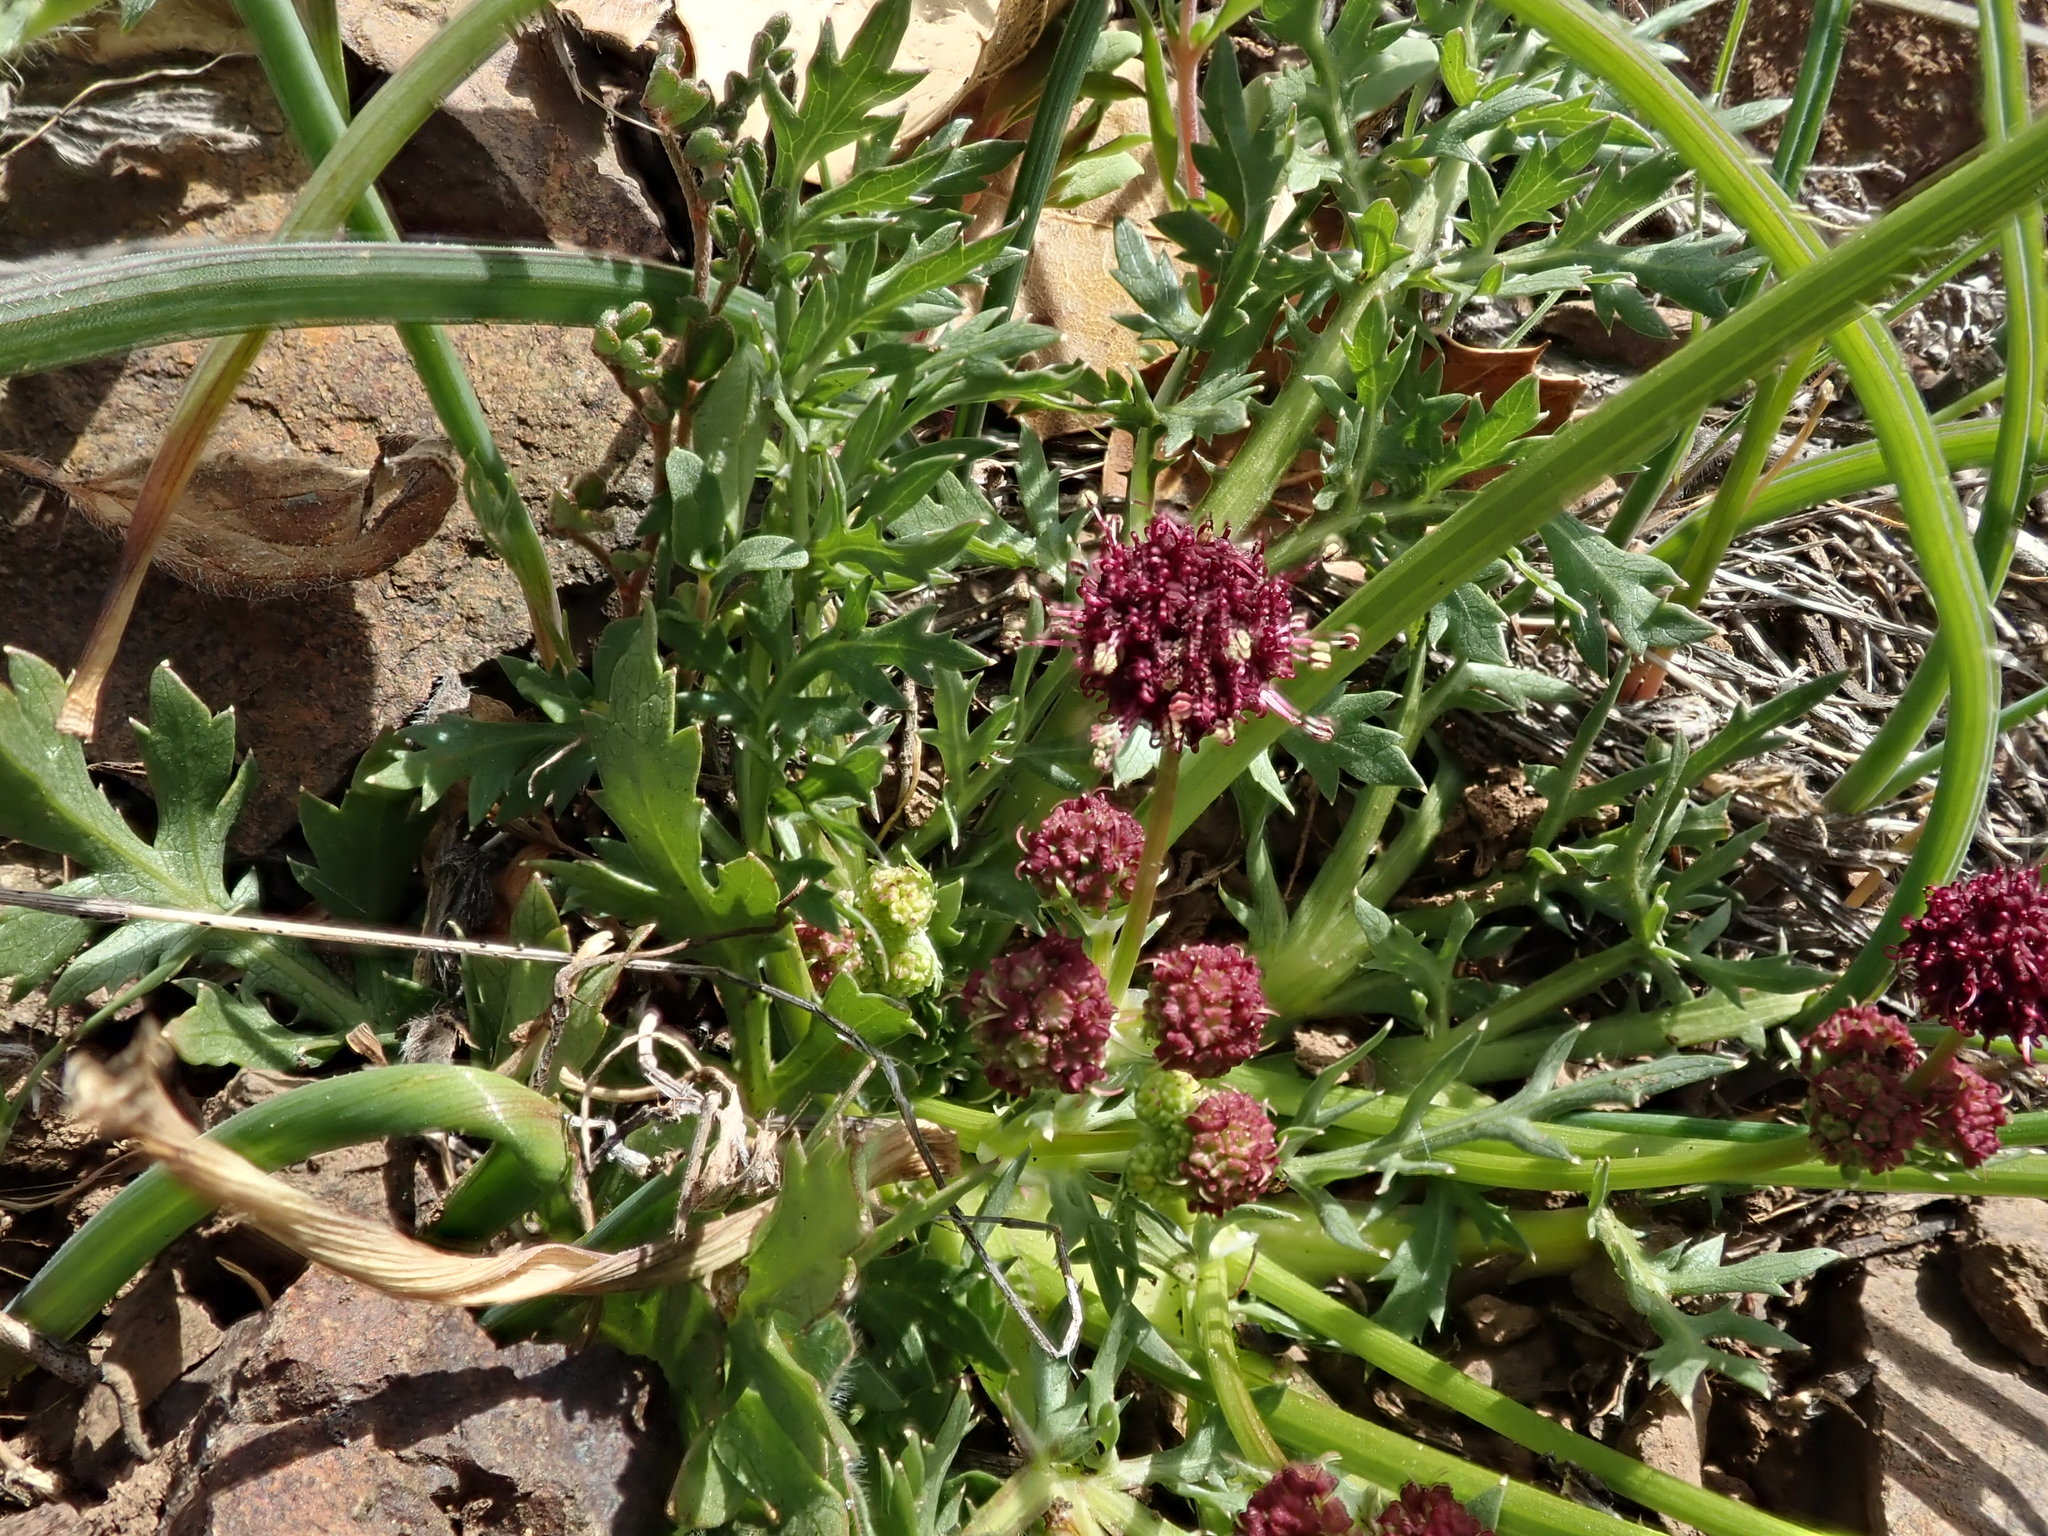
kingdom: Plantae
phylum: Tracheophyta
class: Magnoliopsida
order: Apiales
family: Apiaceae
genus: Sanicula
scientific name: Sanicula bipinnatifida
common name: Shoe-buttons
